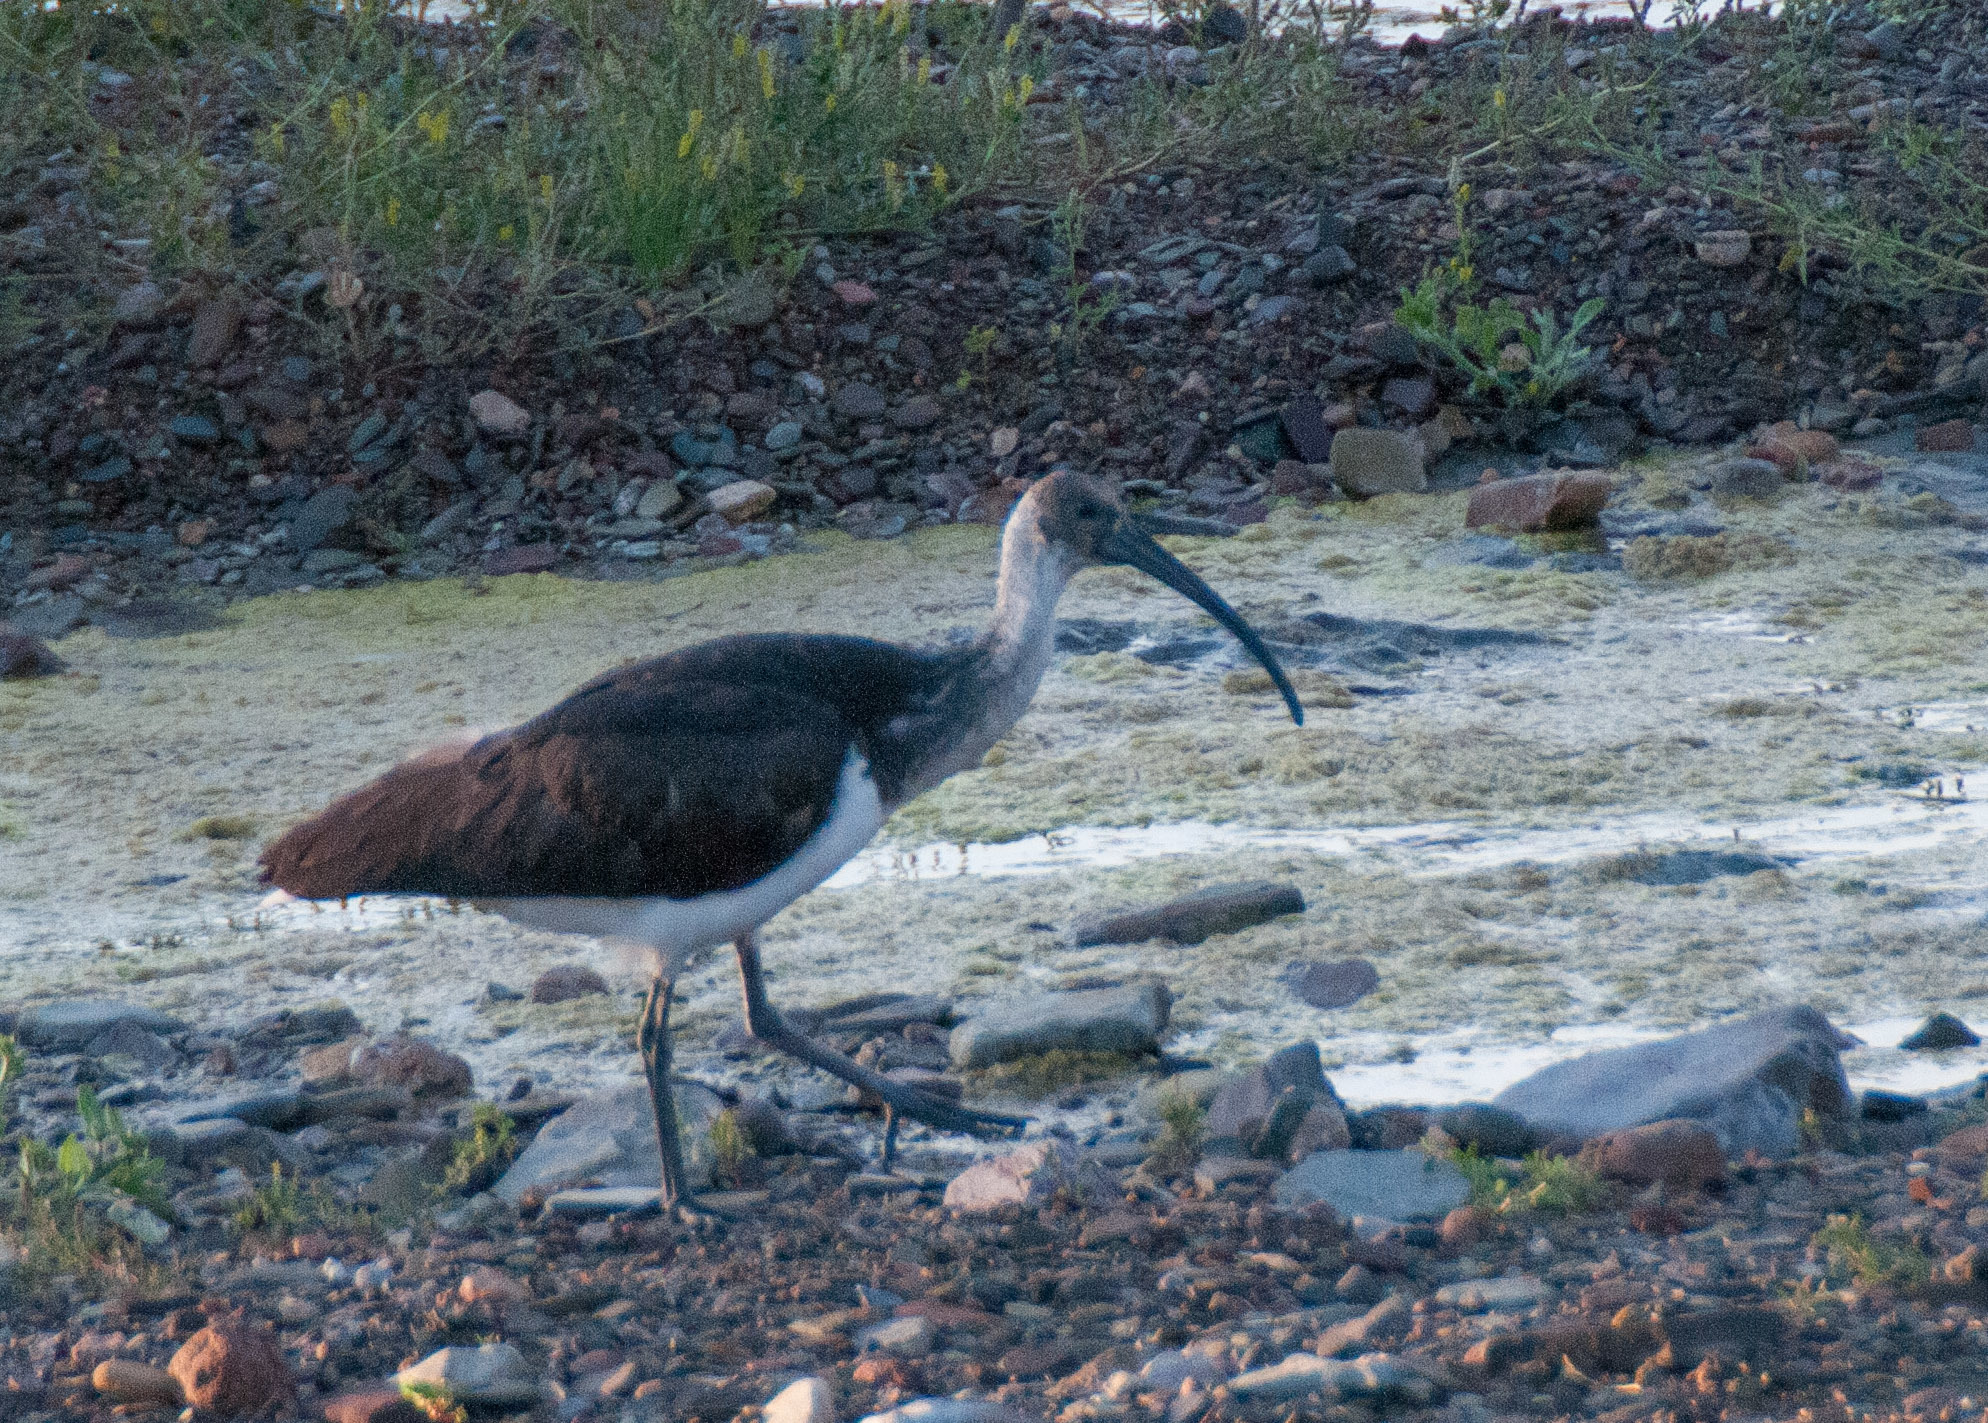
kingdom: Animalia
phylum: Chordata
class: Aves
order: Pelecaniformes
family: Threskiornithidae
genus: Threskiornis
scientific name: Threskiornis spinicollis
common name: Straw-necked ibis
